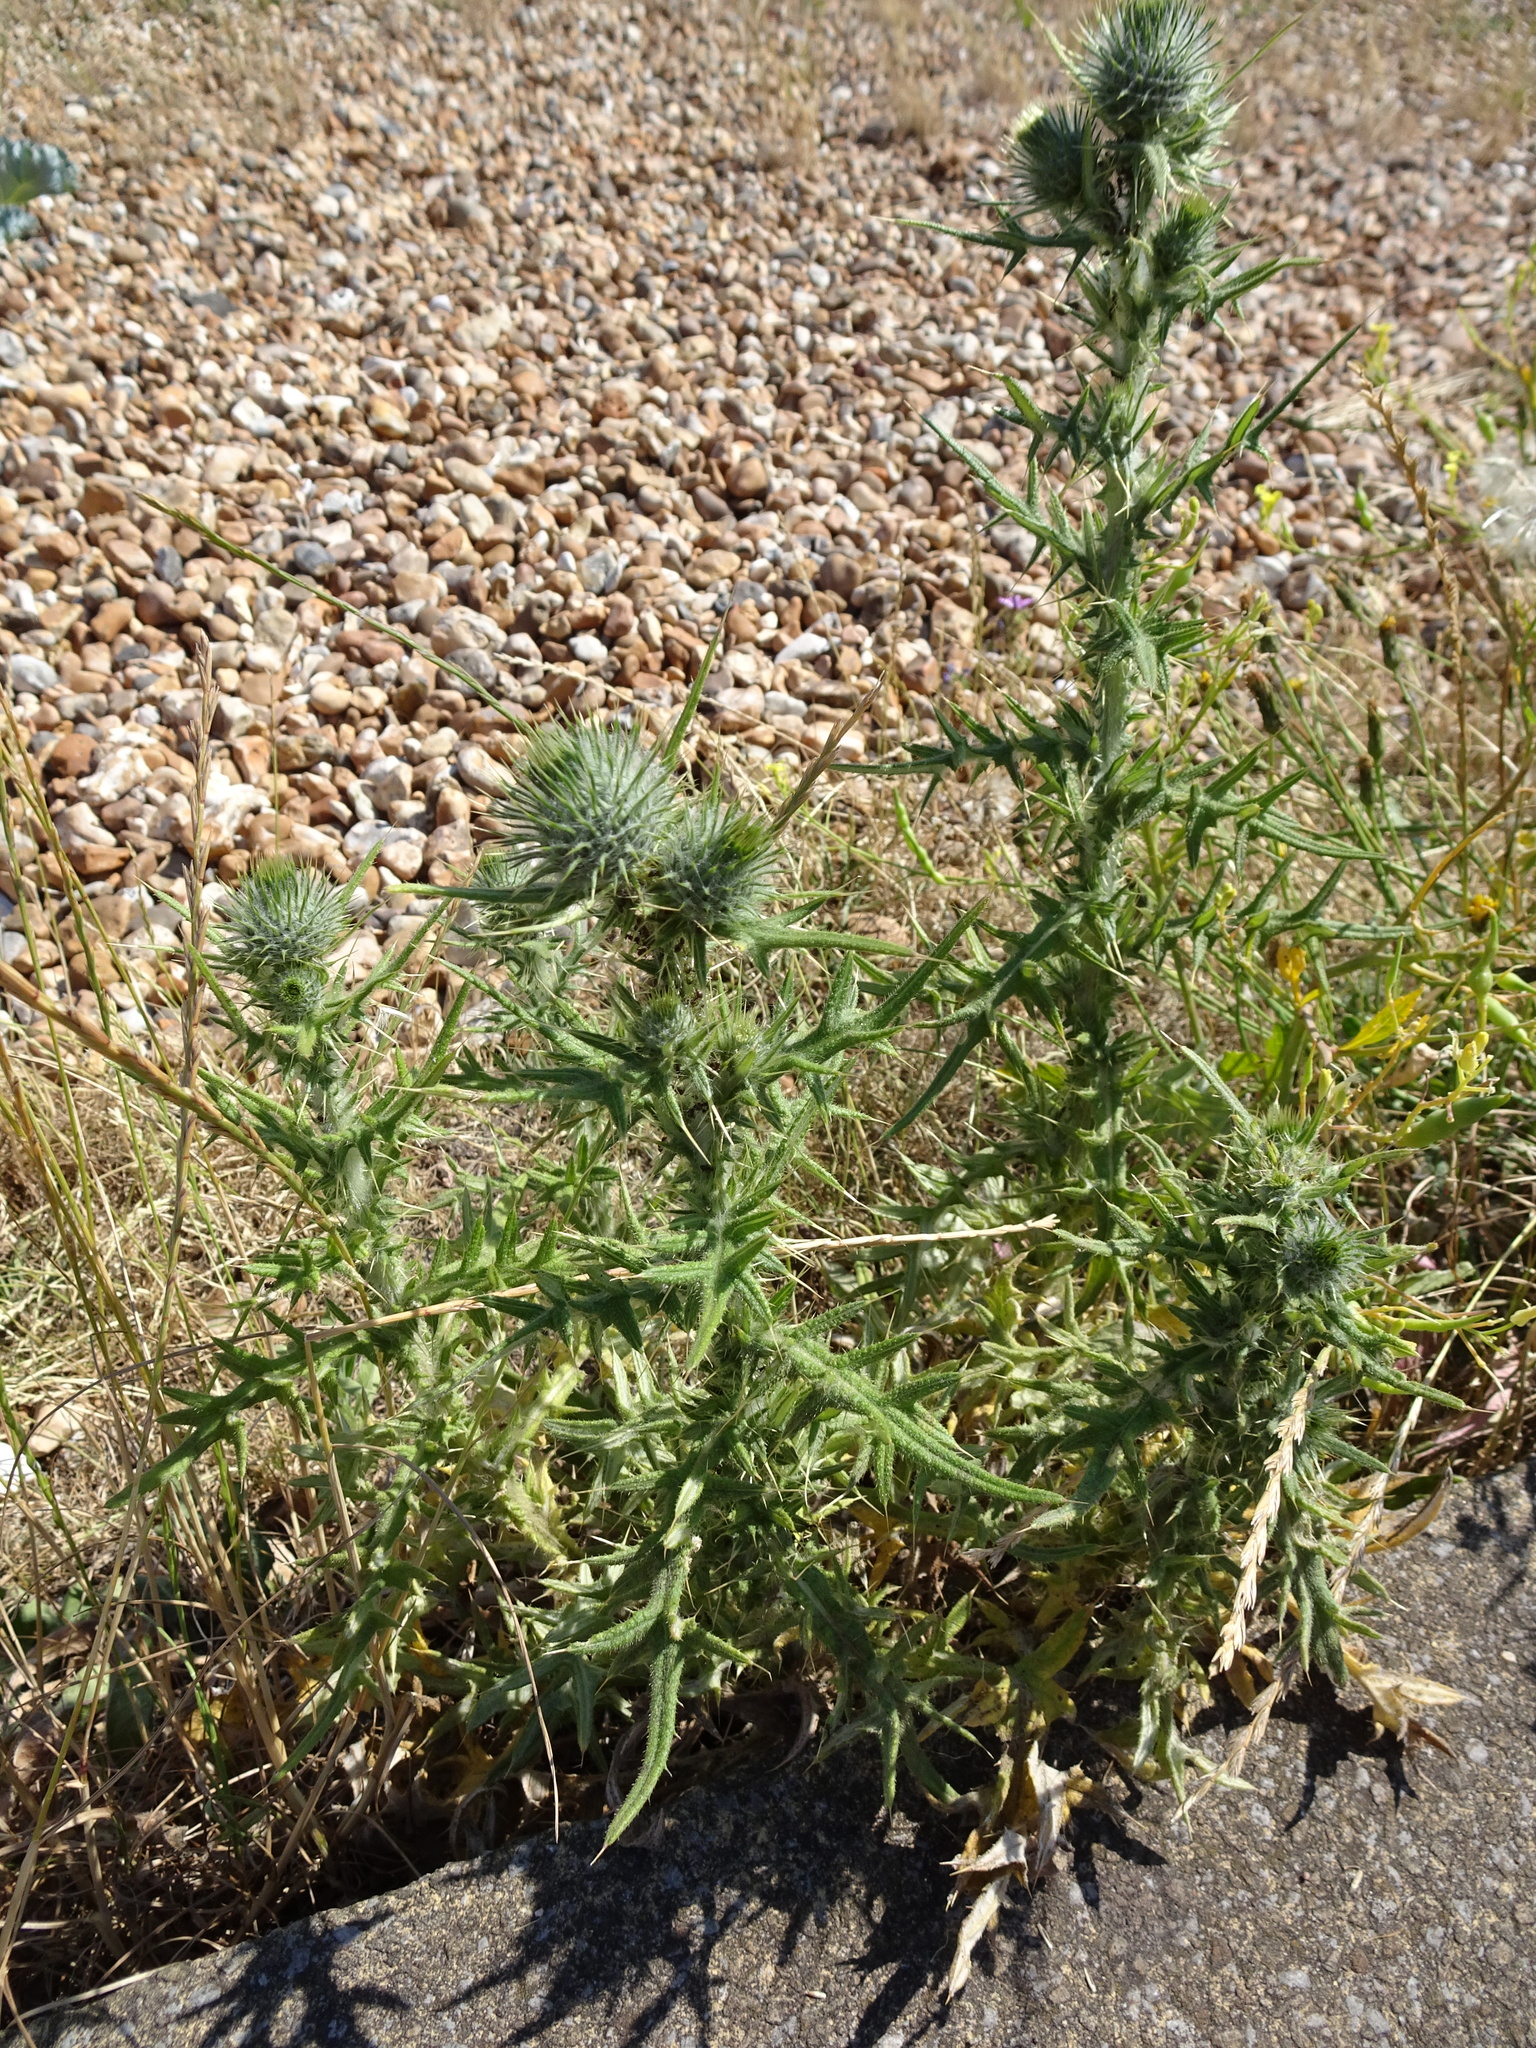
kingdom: Plantae
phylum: Tracheophyta
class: Magnoliopsida
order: Asterales
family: Asteraceae
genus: Cirsium
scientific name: Cirsium vulgare
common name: Bull thistle
